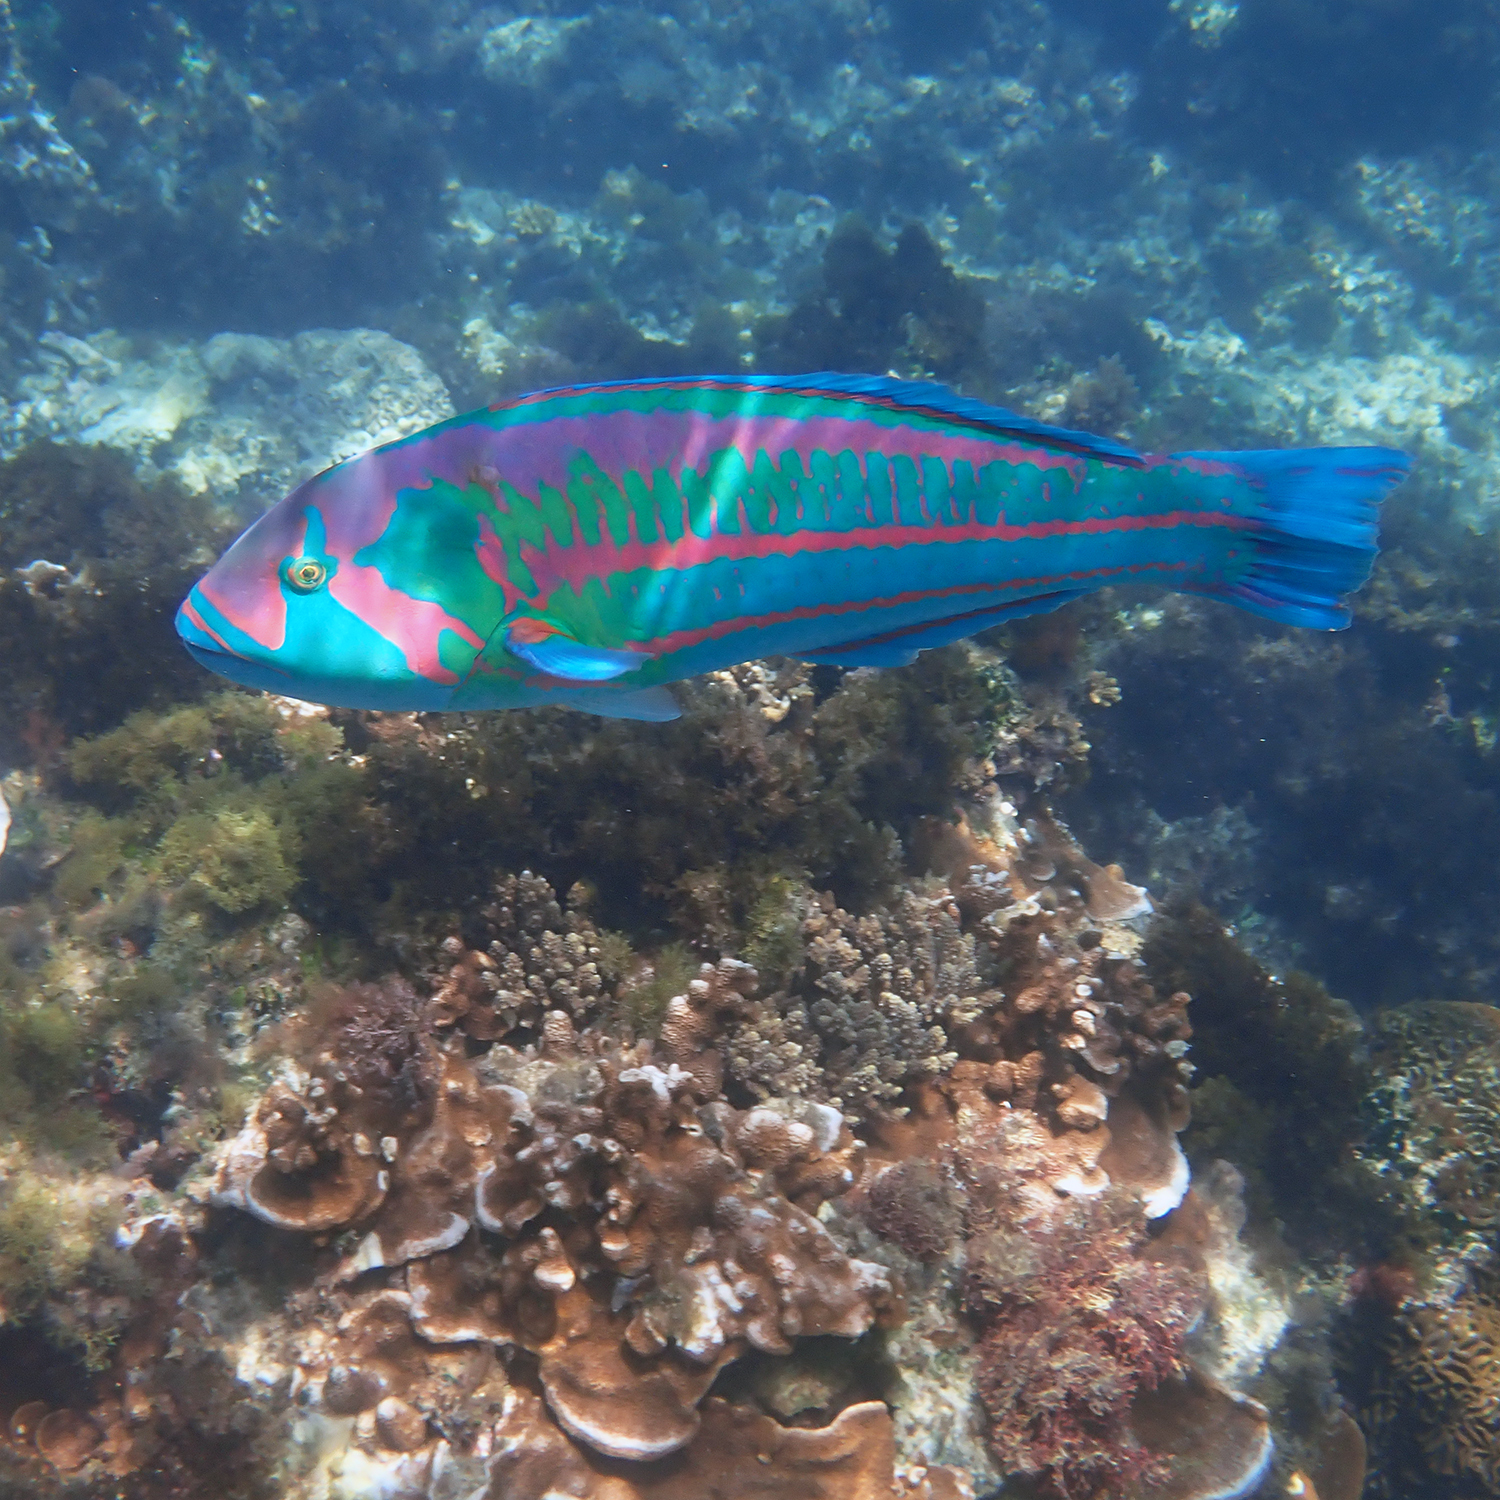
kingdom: Animalia
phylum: Chordata
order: Perciformes
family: Labridae
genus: Thalassoma
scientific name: Thalassoma purpureum
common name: Parrotfish
